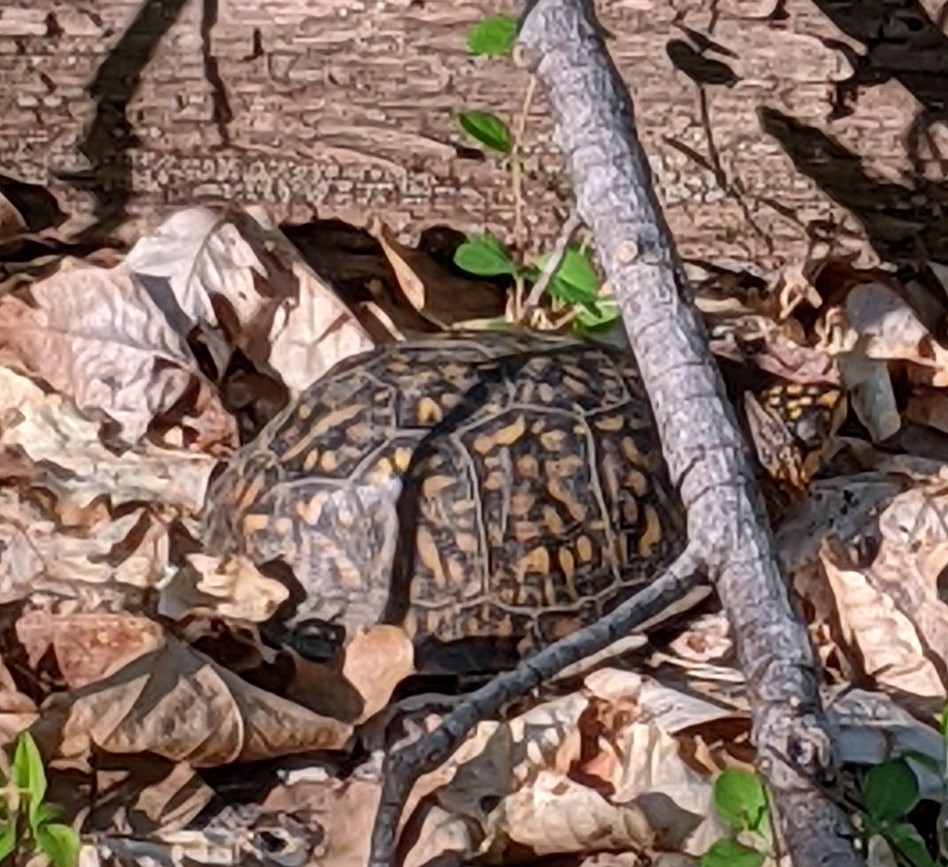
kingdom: Animalia
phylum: Chordata
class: Testudines
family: Emydidae
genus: Terrapene
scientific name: Terrapene carolina
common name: Common box turtle
